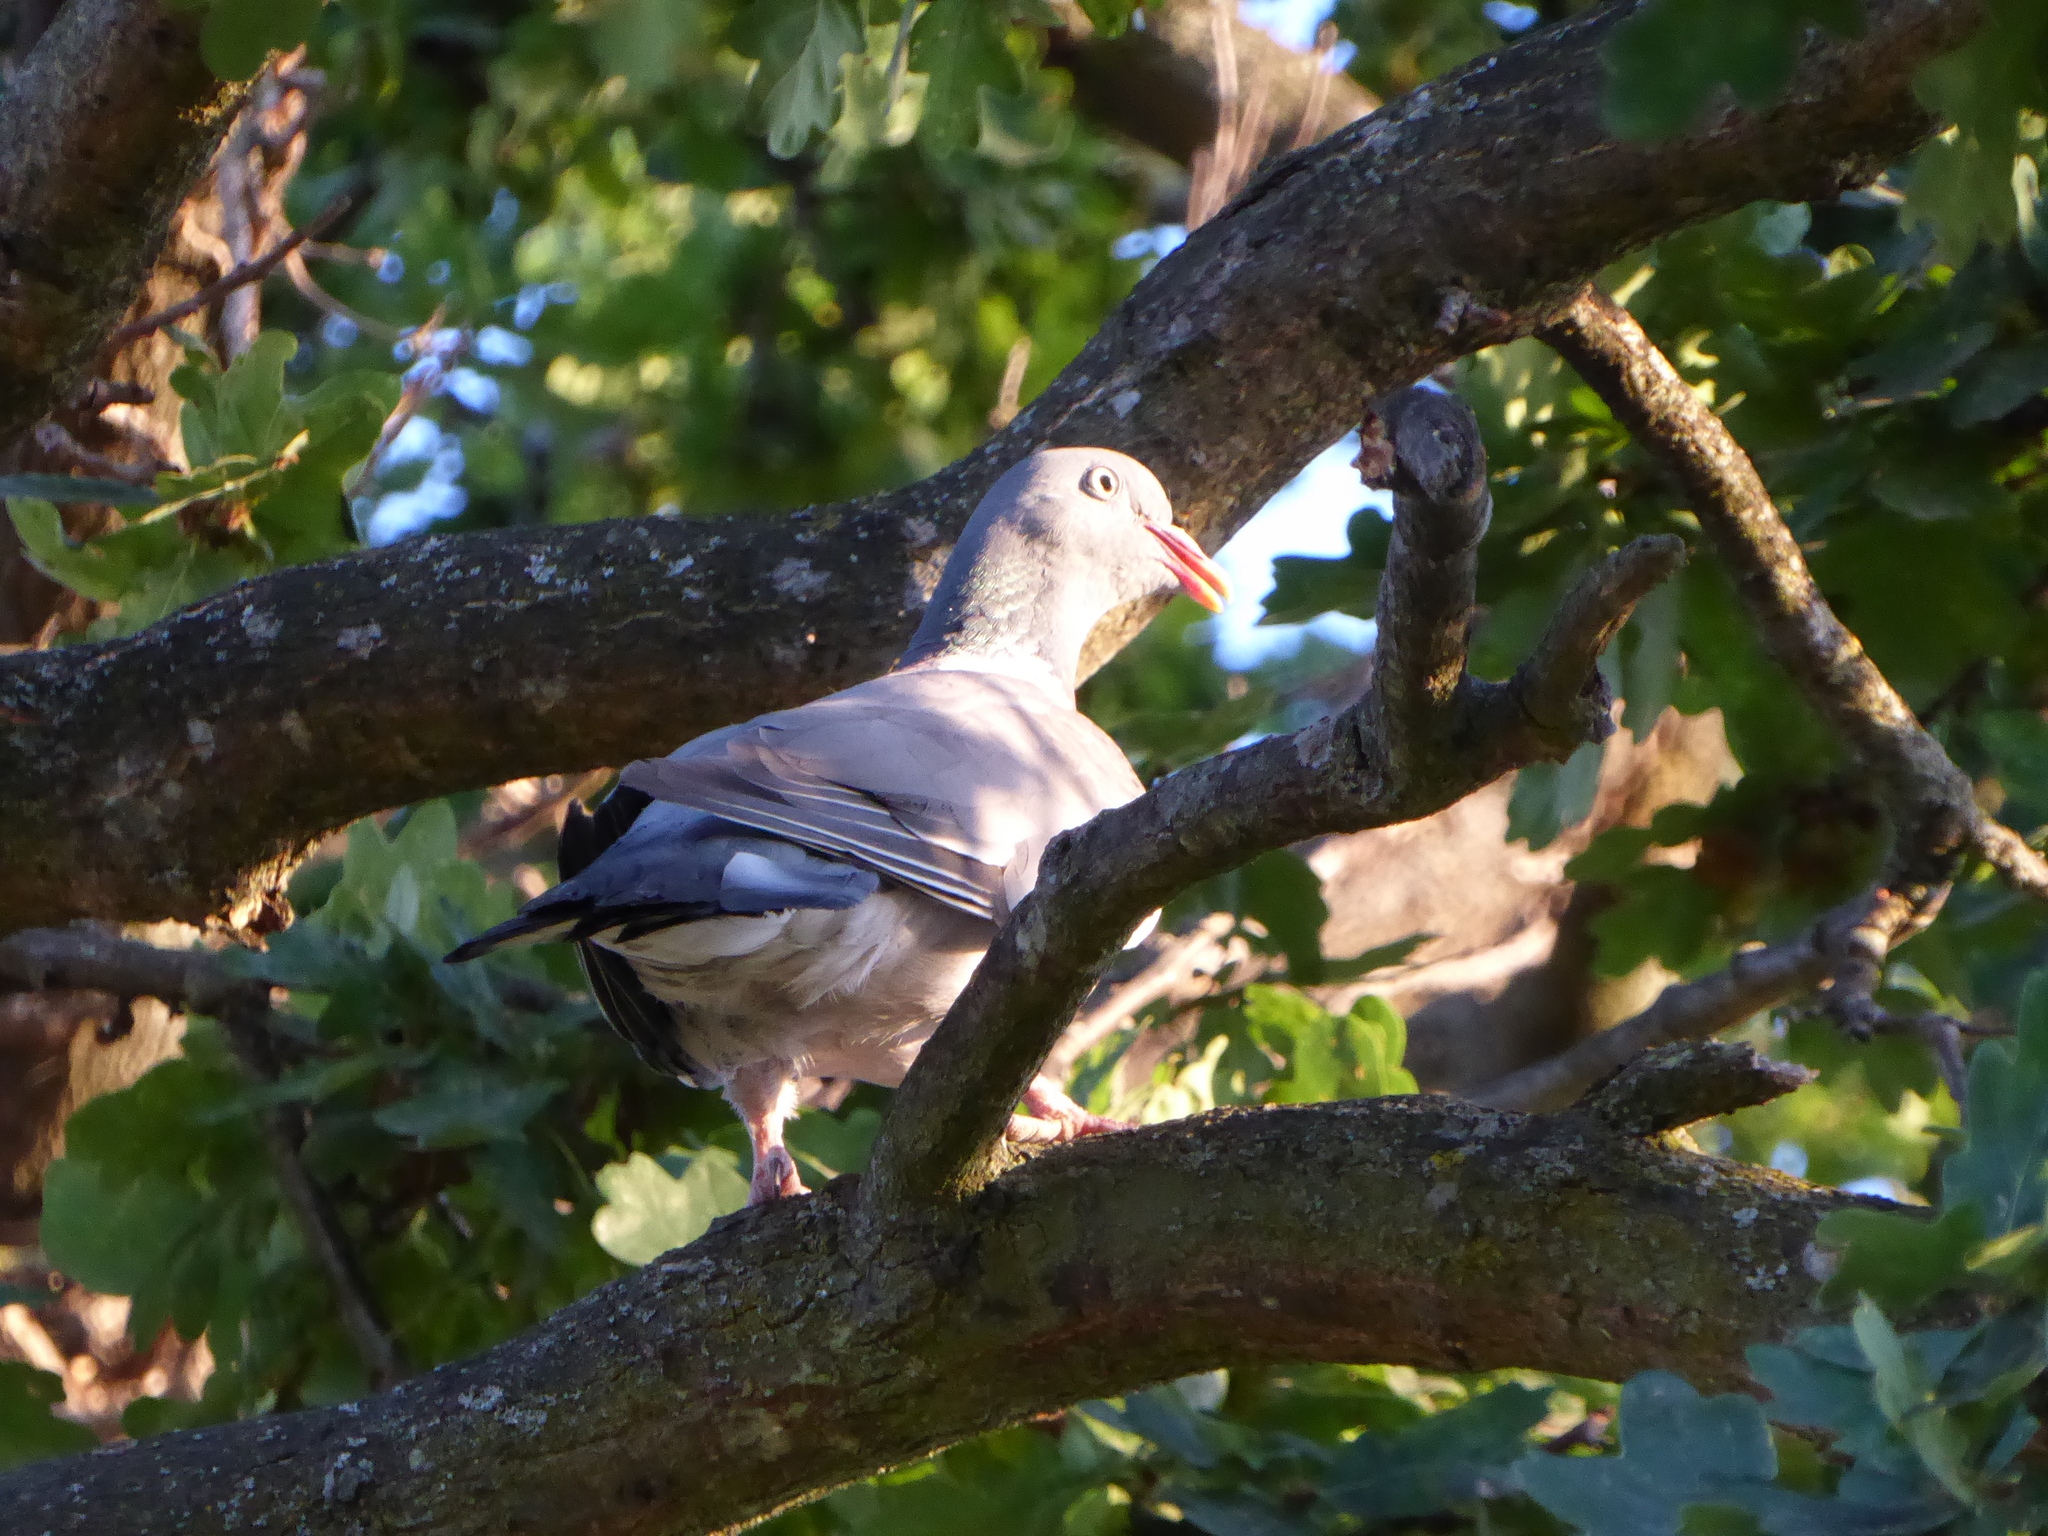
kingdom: Animalia
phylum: Chordata
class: Aves
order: Columbiformes
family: Columbidae
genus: Columba
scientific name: Columba palumbus
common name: Common wood pigeon
